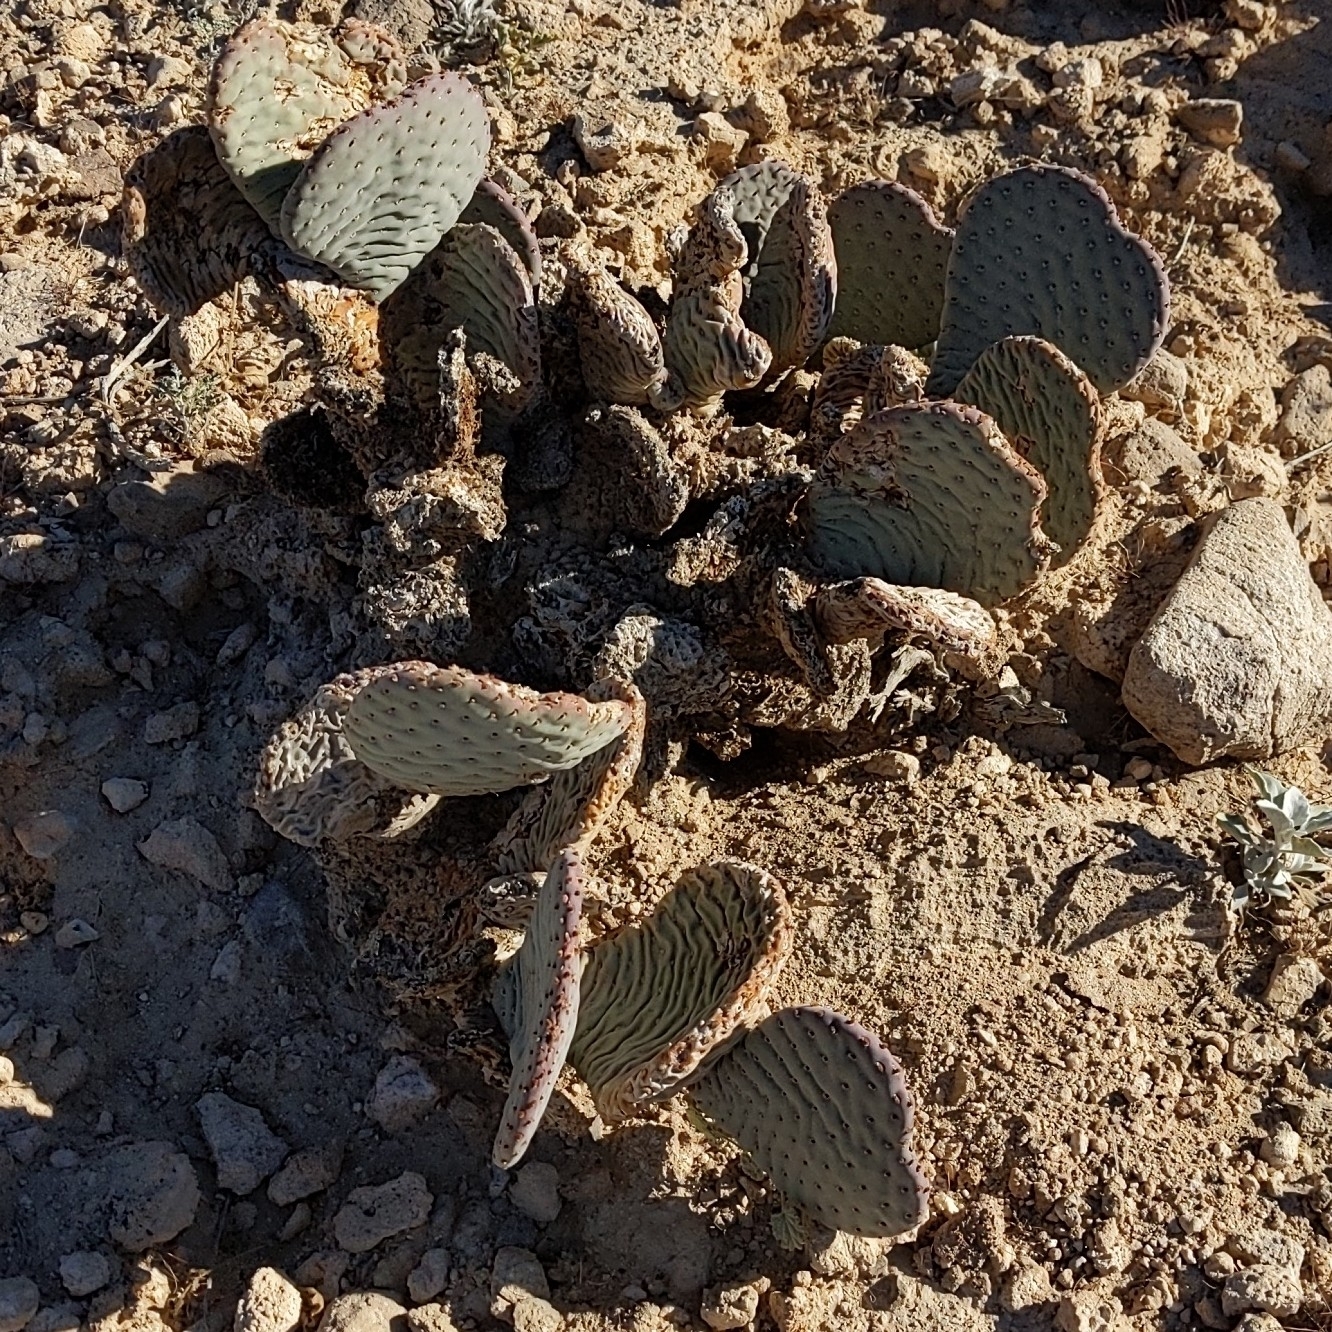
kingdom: Plantae
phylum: Tracheophyta
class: Magnoliopsida
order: Caryophyllales
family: Cactaceae
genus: Opuntia
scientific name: Opuntia basilaris
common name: Beavertail prickly-pear
